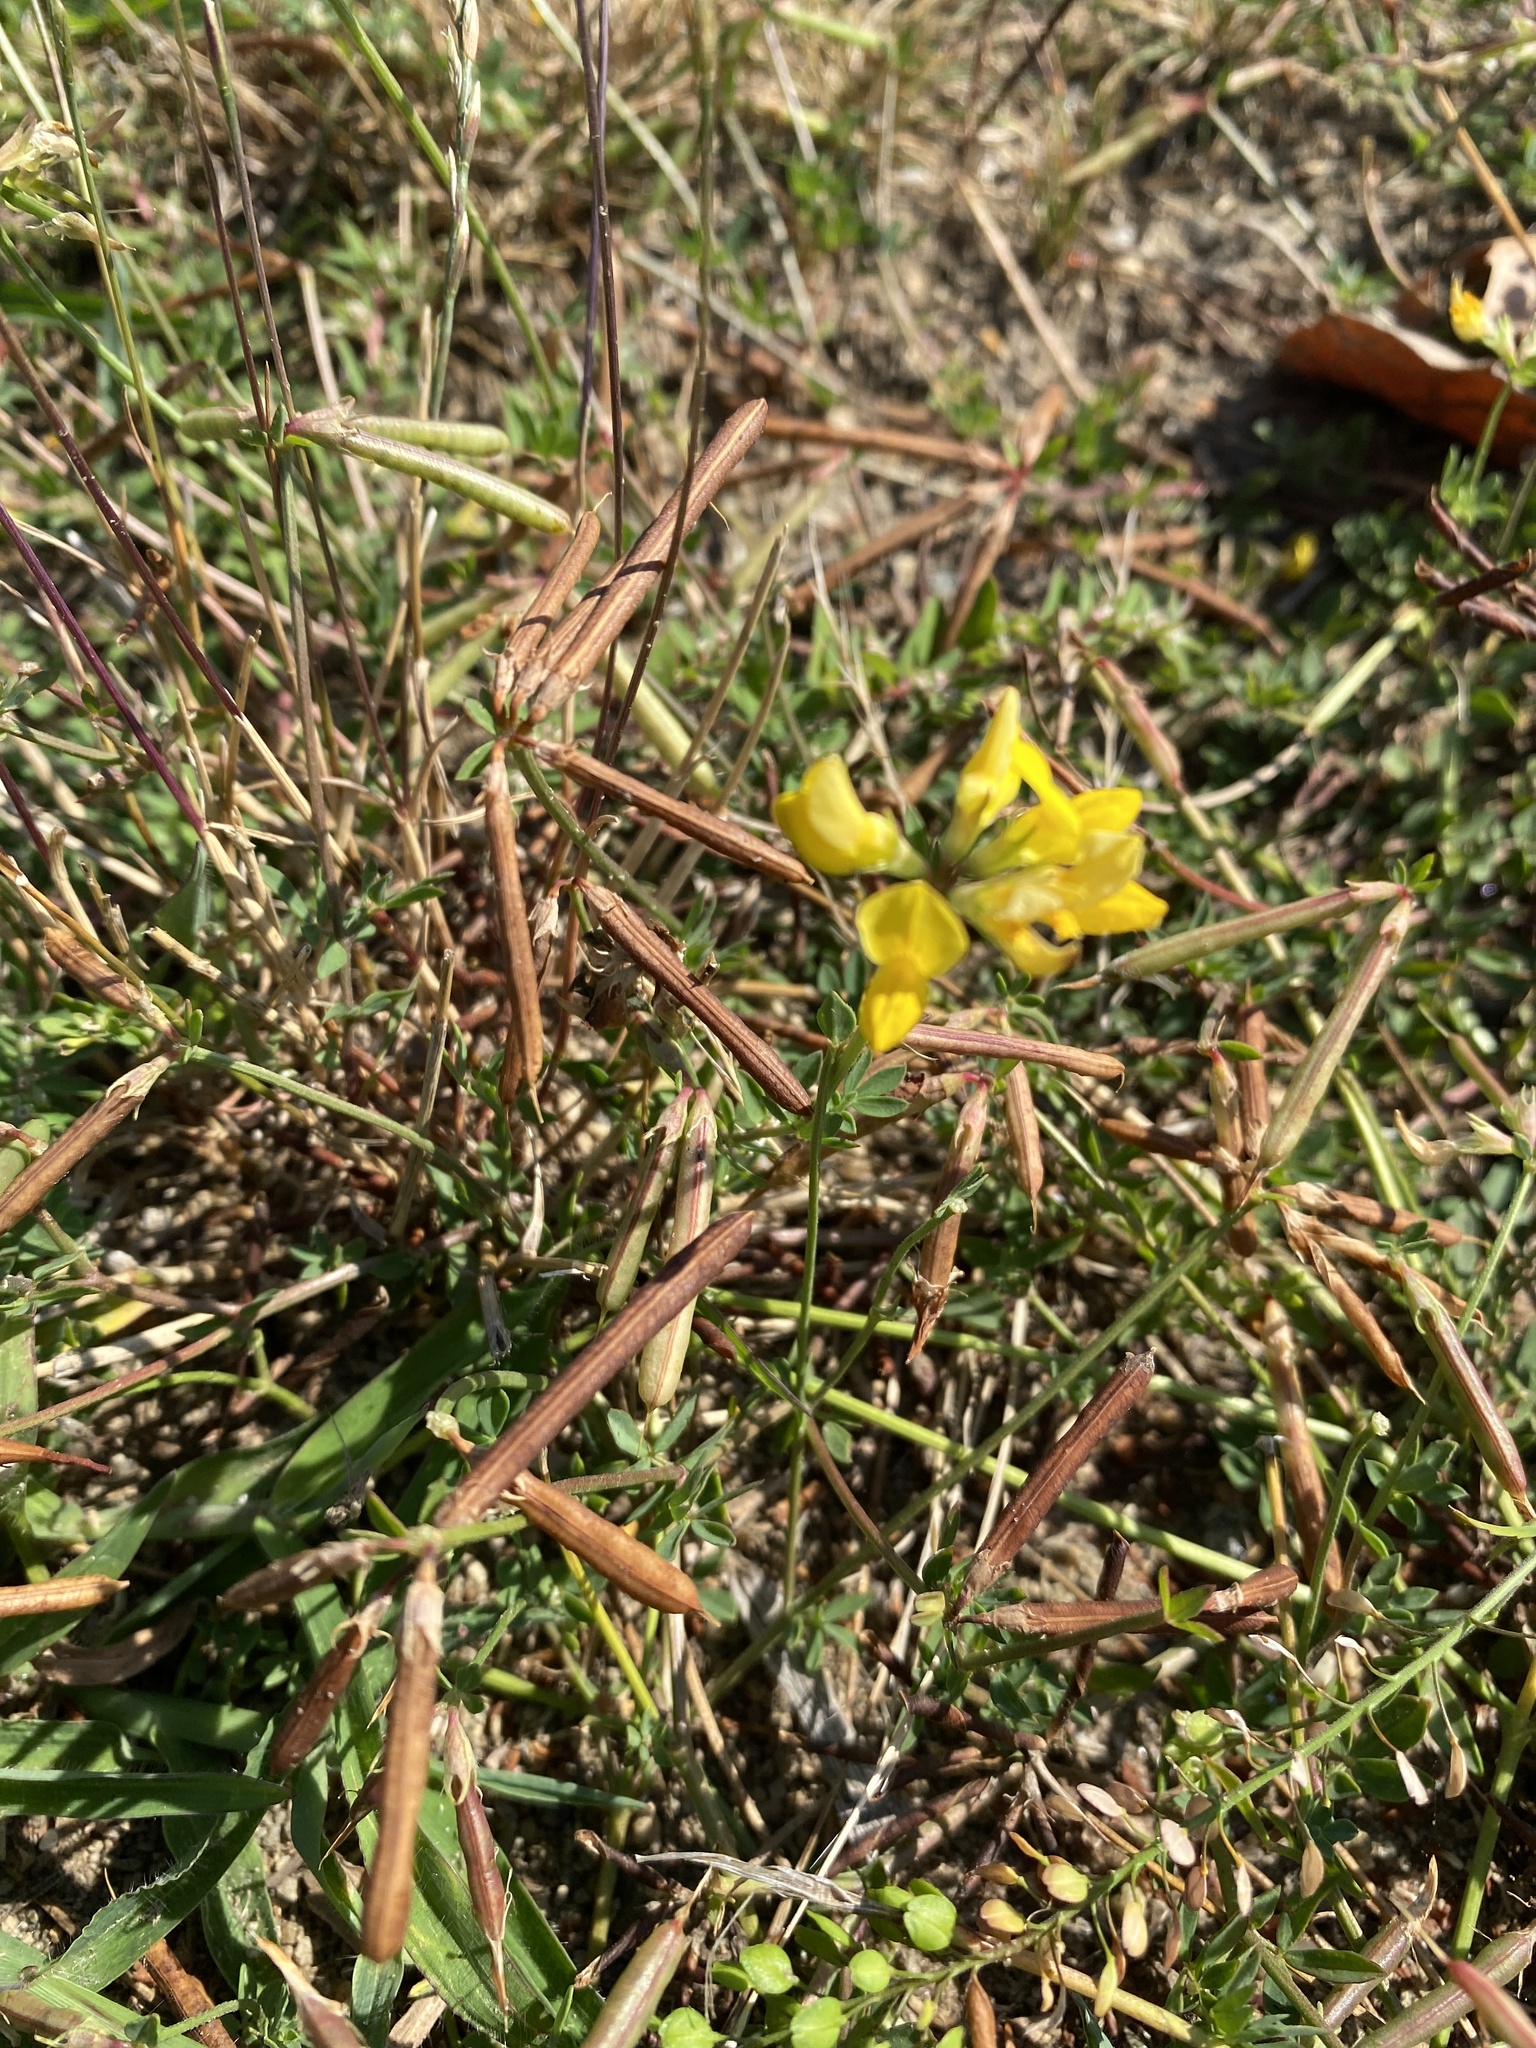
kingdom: Plantae
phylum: Tracheophyta
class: Magnoliopsida
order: Fabales
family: Fabaceae
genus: Lotus
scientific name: Lotus corniculatus
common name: Common bird's-foot-trefoil
